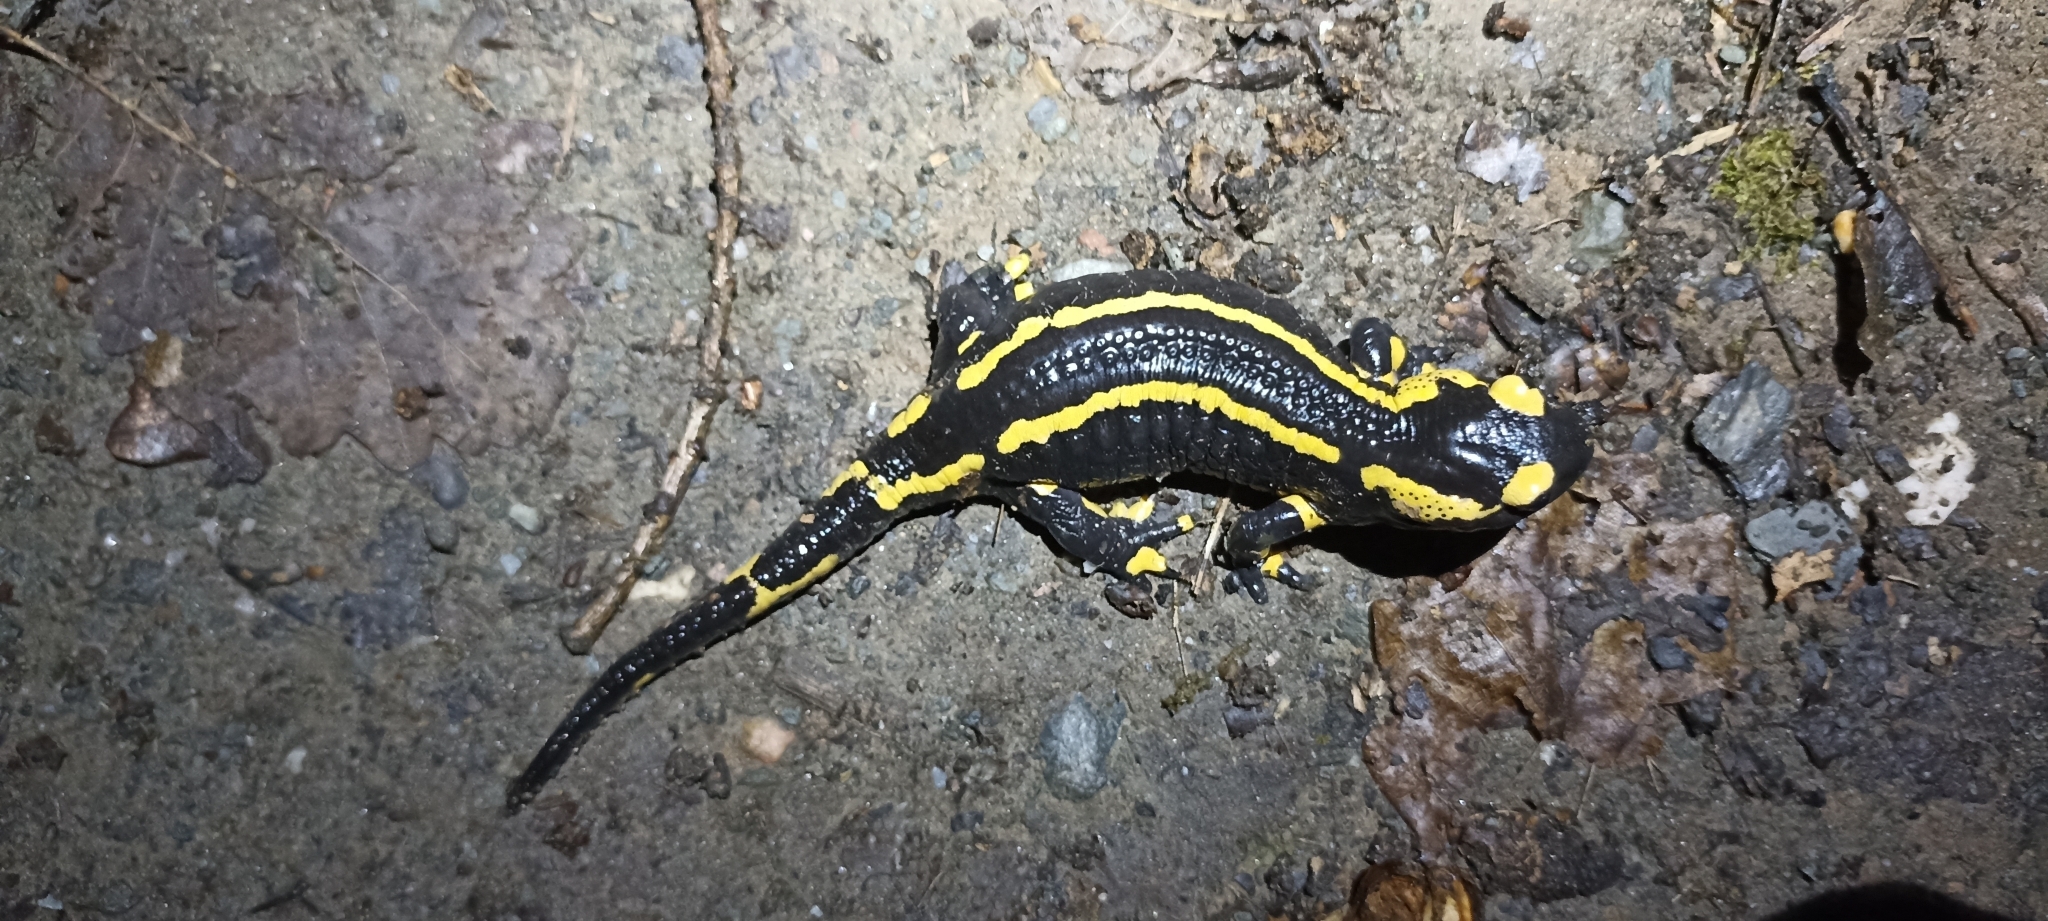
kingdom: Animalia
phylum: Chordata
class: Amphibia
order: Caudata
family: Salamandridae
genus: Salamandra
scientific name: Salamandra salamandra
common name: Fire salamander
